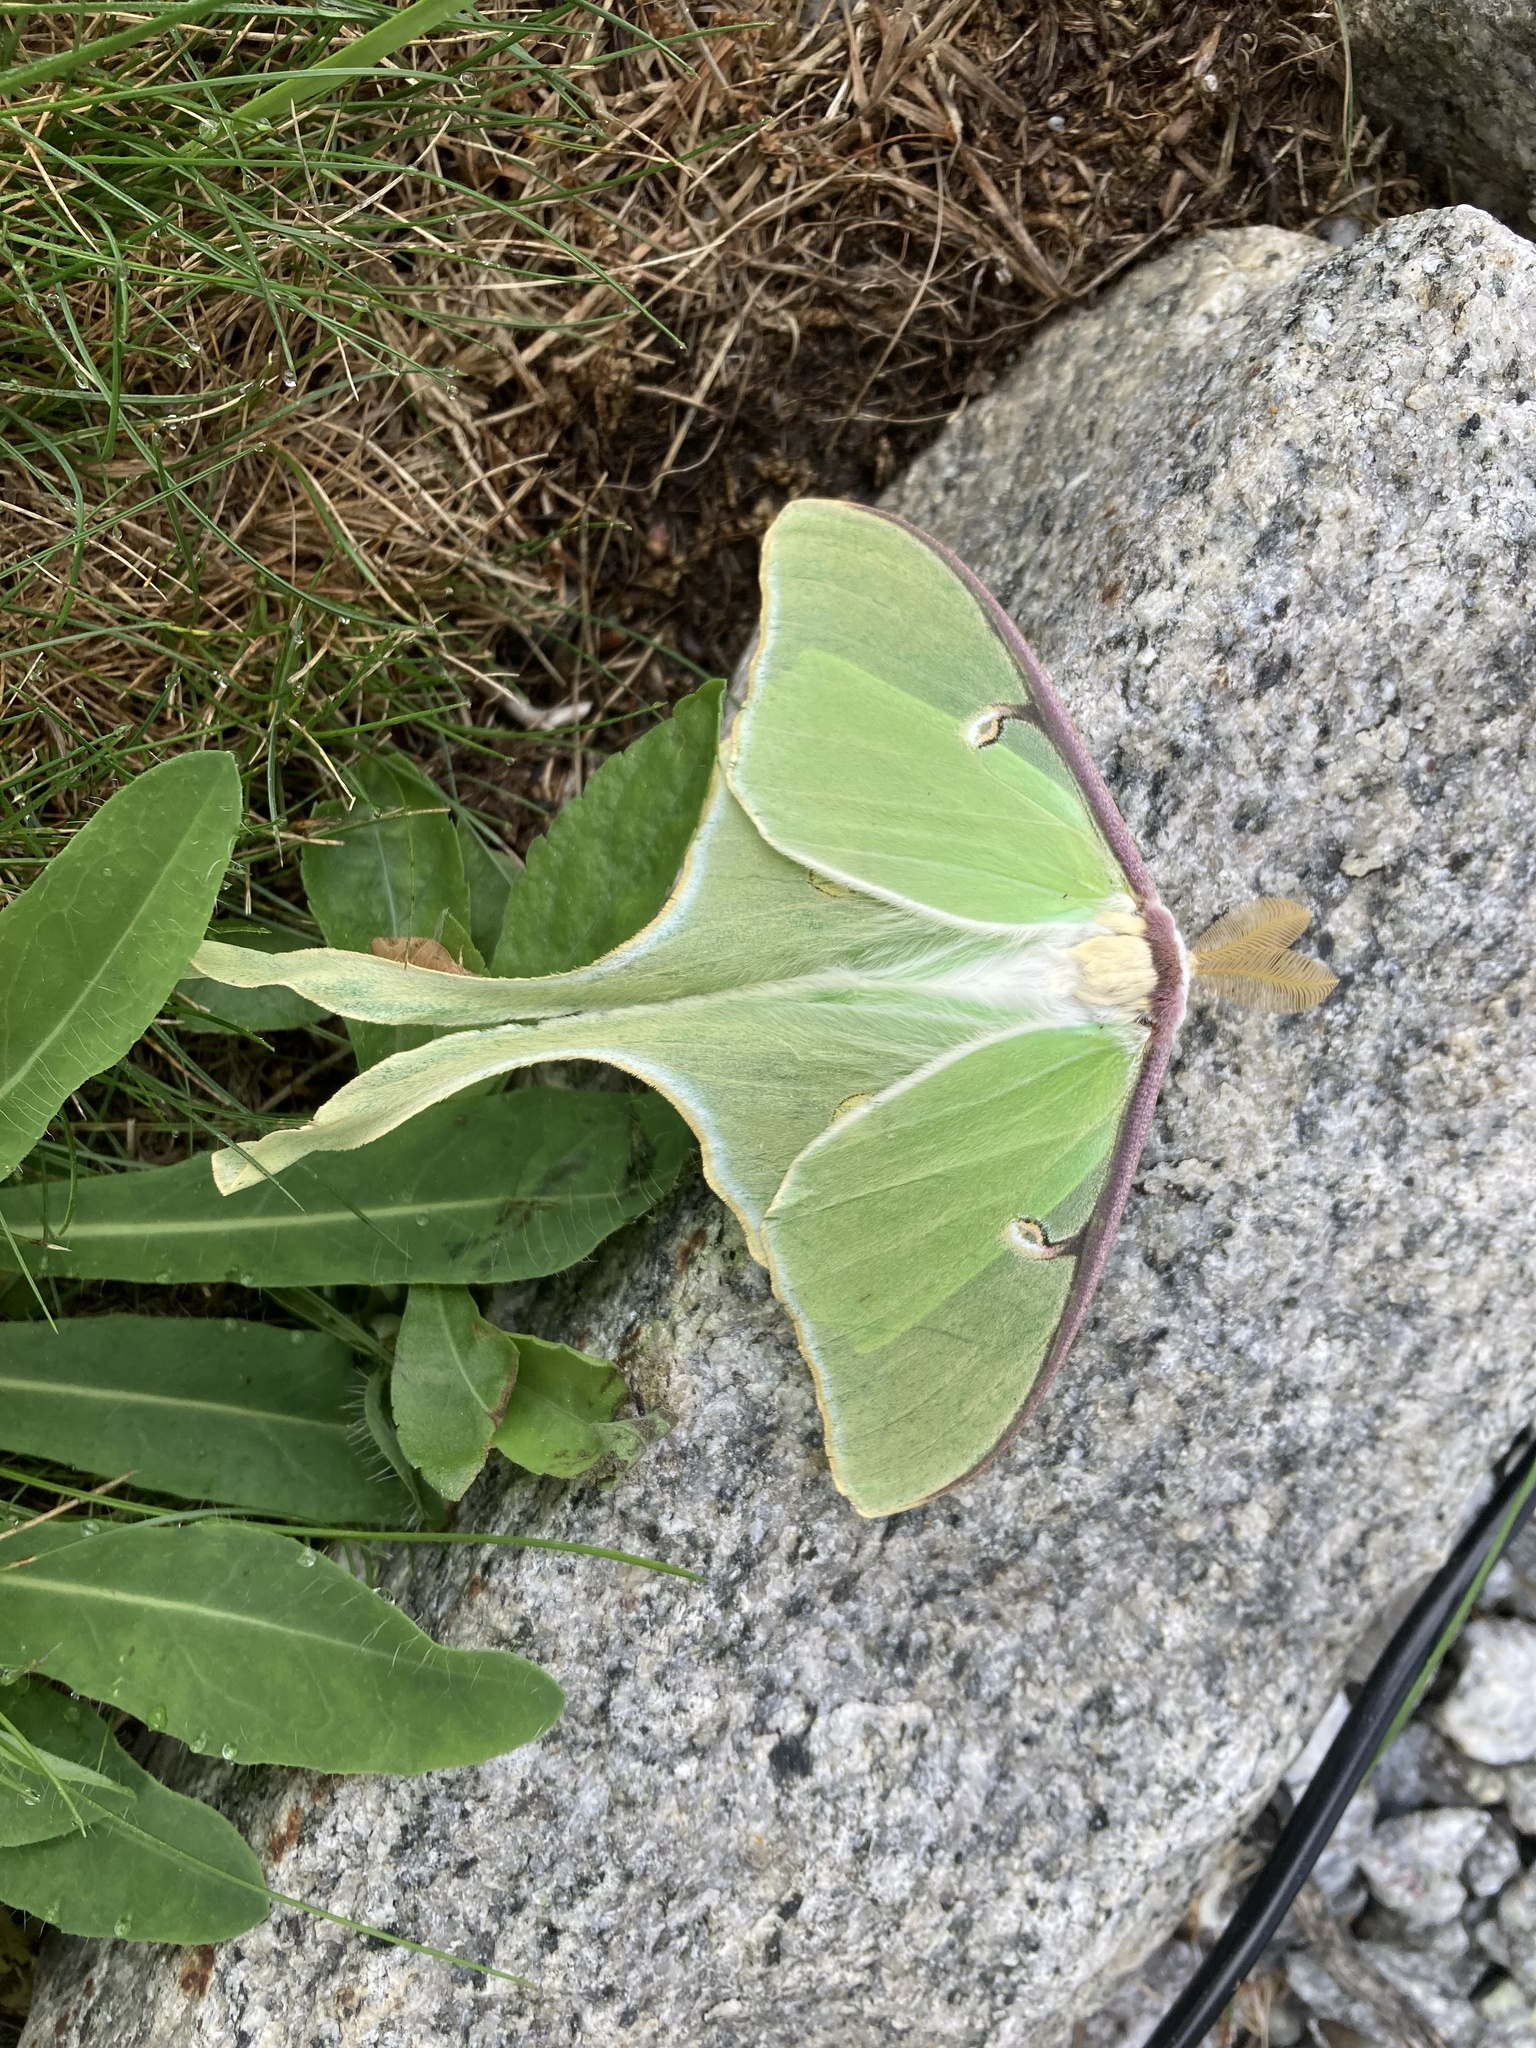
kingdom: Animalia
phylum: Arthropoda
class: Insecta
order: Lepidoptera
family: Saturniidae
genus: Actias
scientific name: Actias luna
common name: Luna moth
